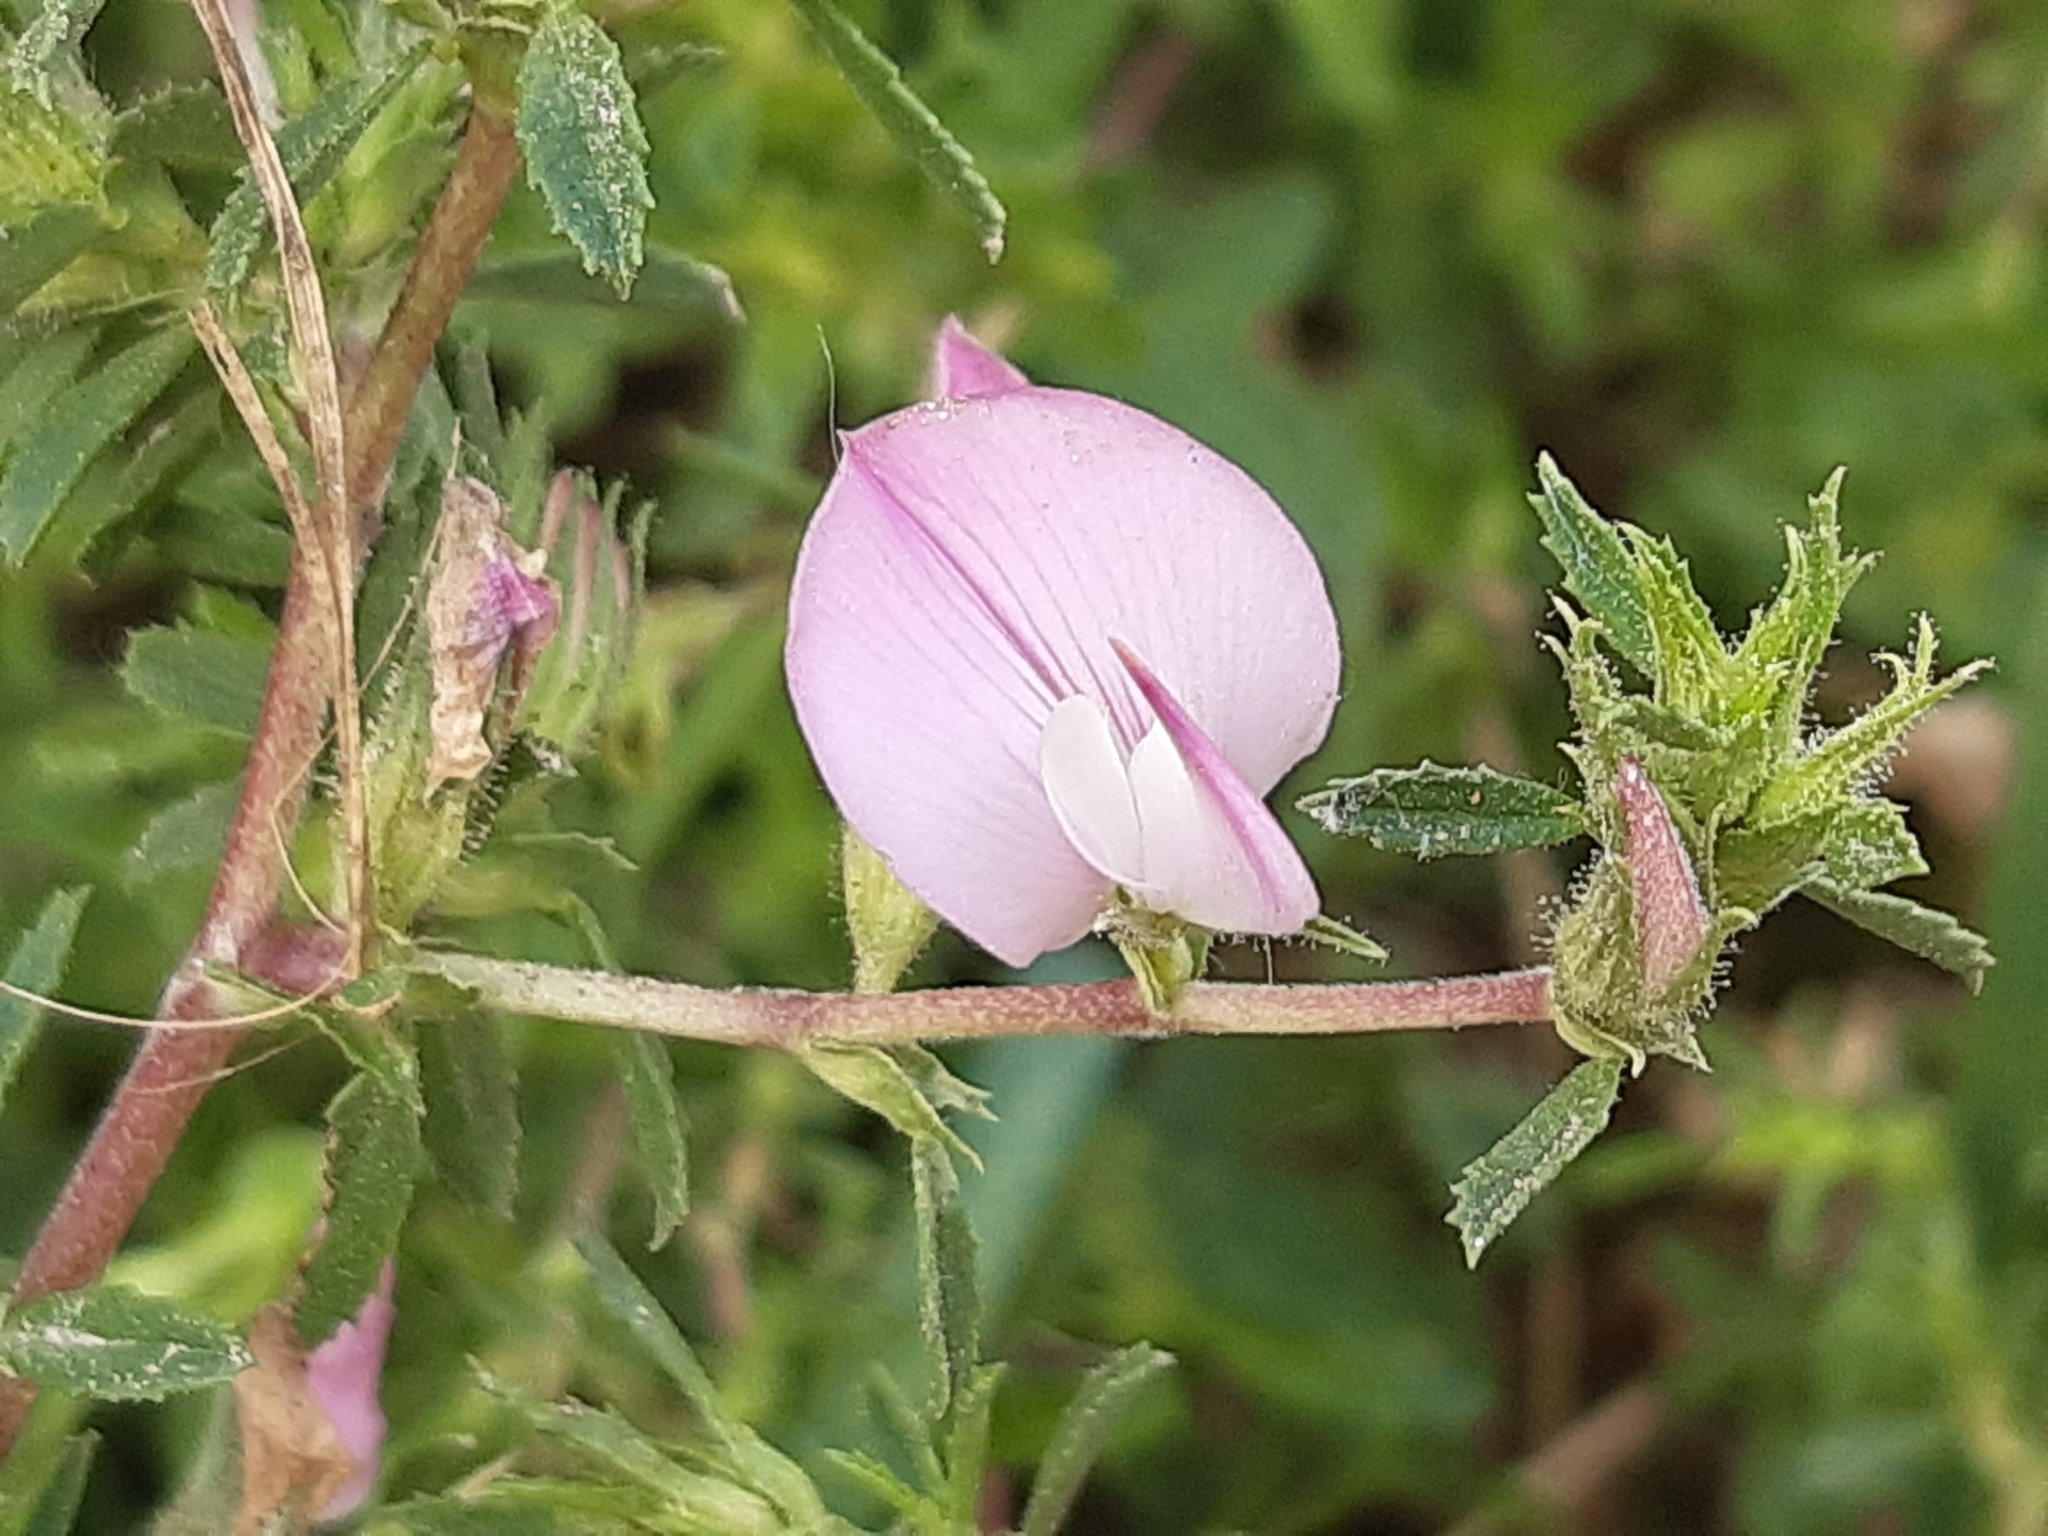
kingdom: Plantae
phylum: Tracheophyta
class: Magnoliopsida
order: Fabales
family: Fabaceae
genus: Ononis
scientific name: Ononis spinosa
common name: Spiny restharrow
